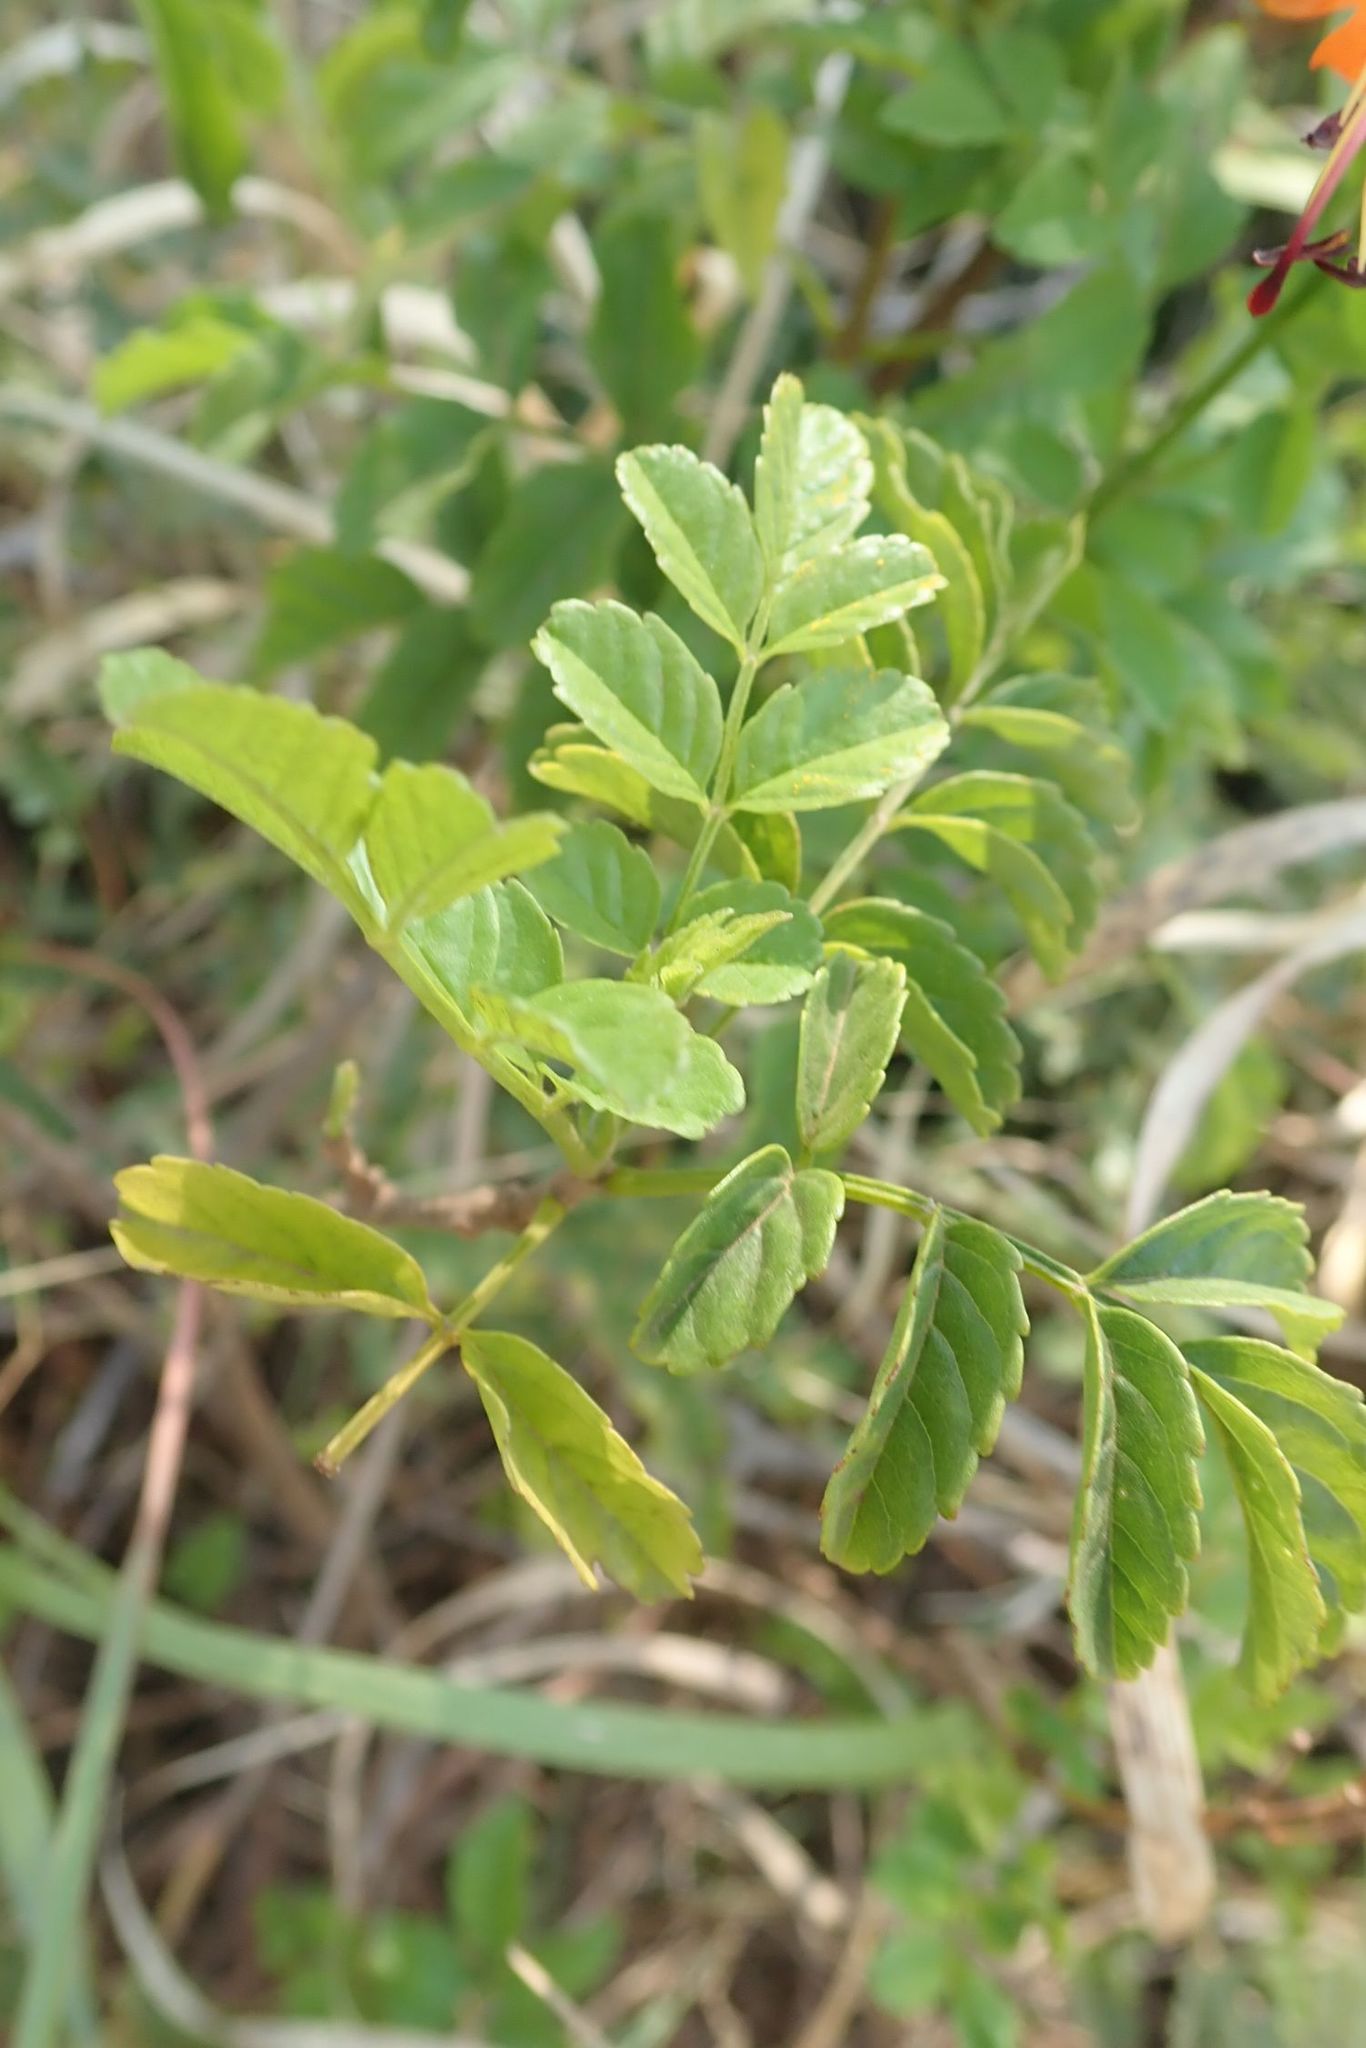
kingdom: Plantae
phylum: Tracheophyta
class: Magnoliopsida
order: Lamiales
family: Bignoniaceae
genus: Tecomaria
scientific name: Tecomaria capensis
